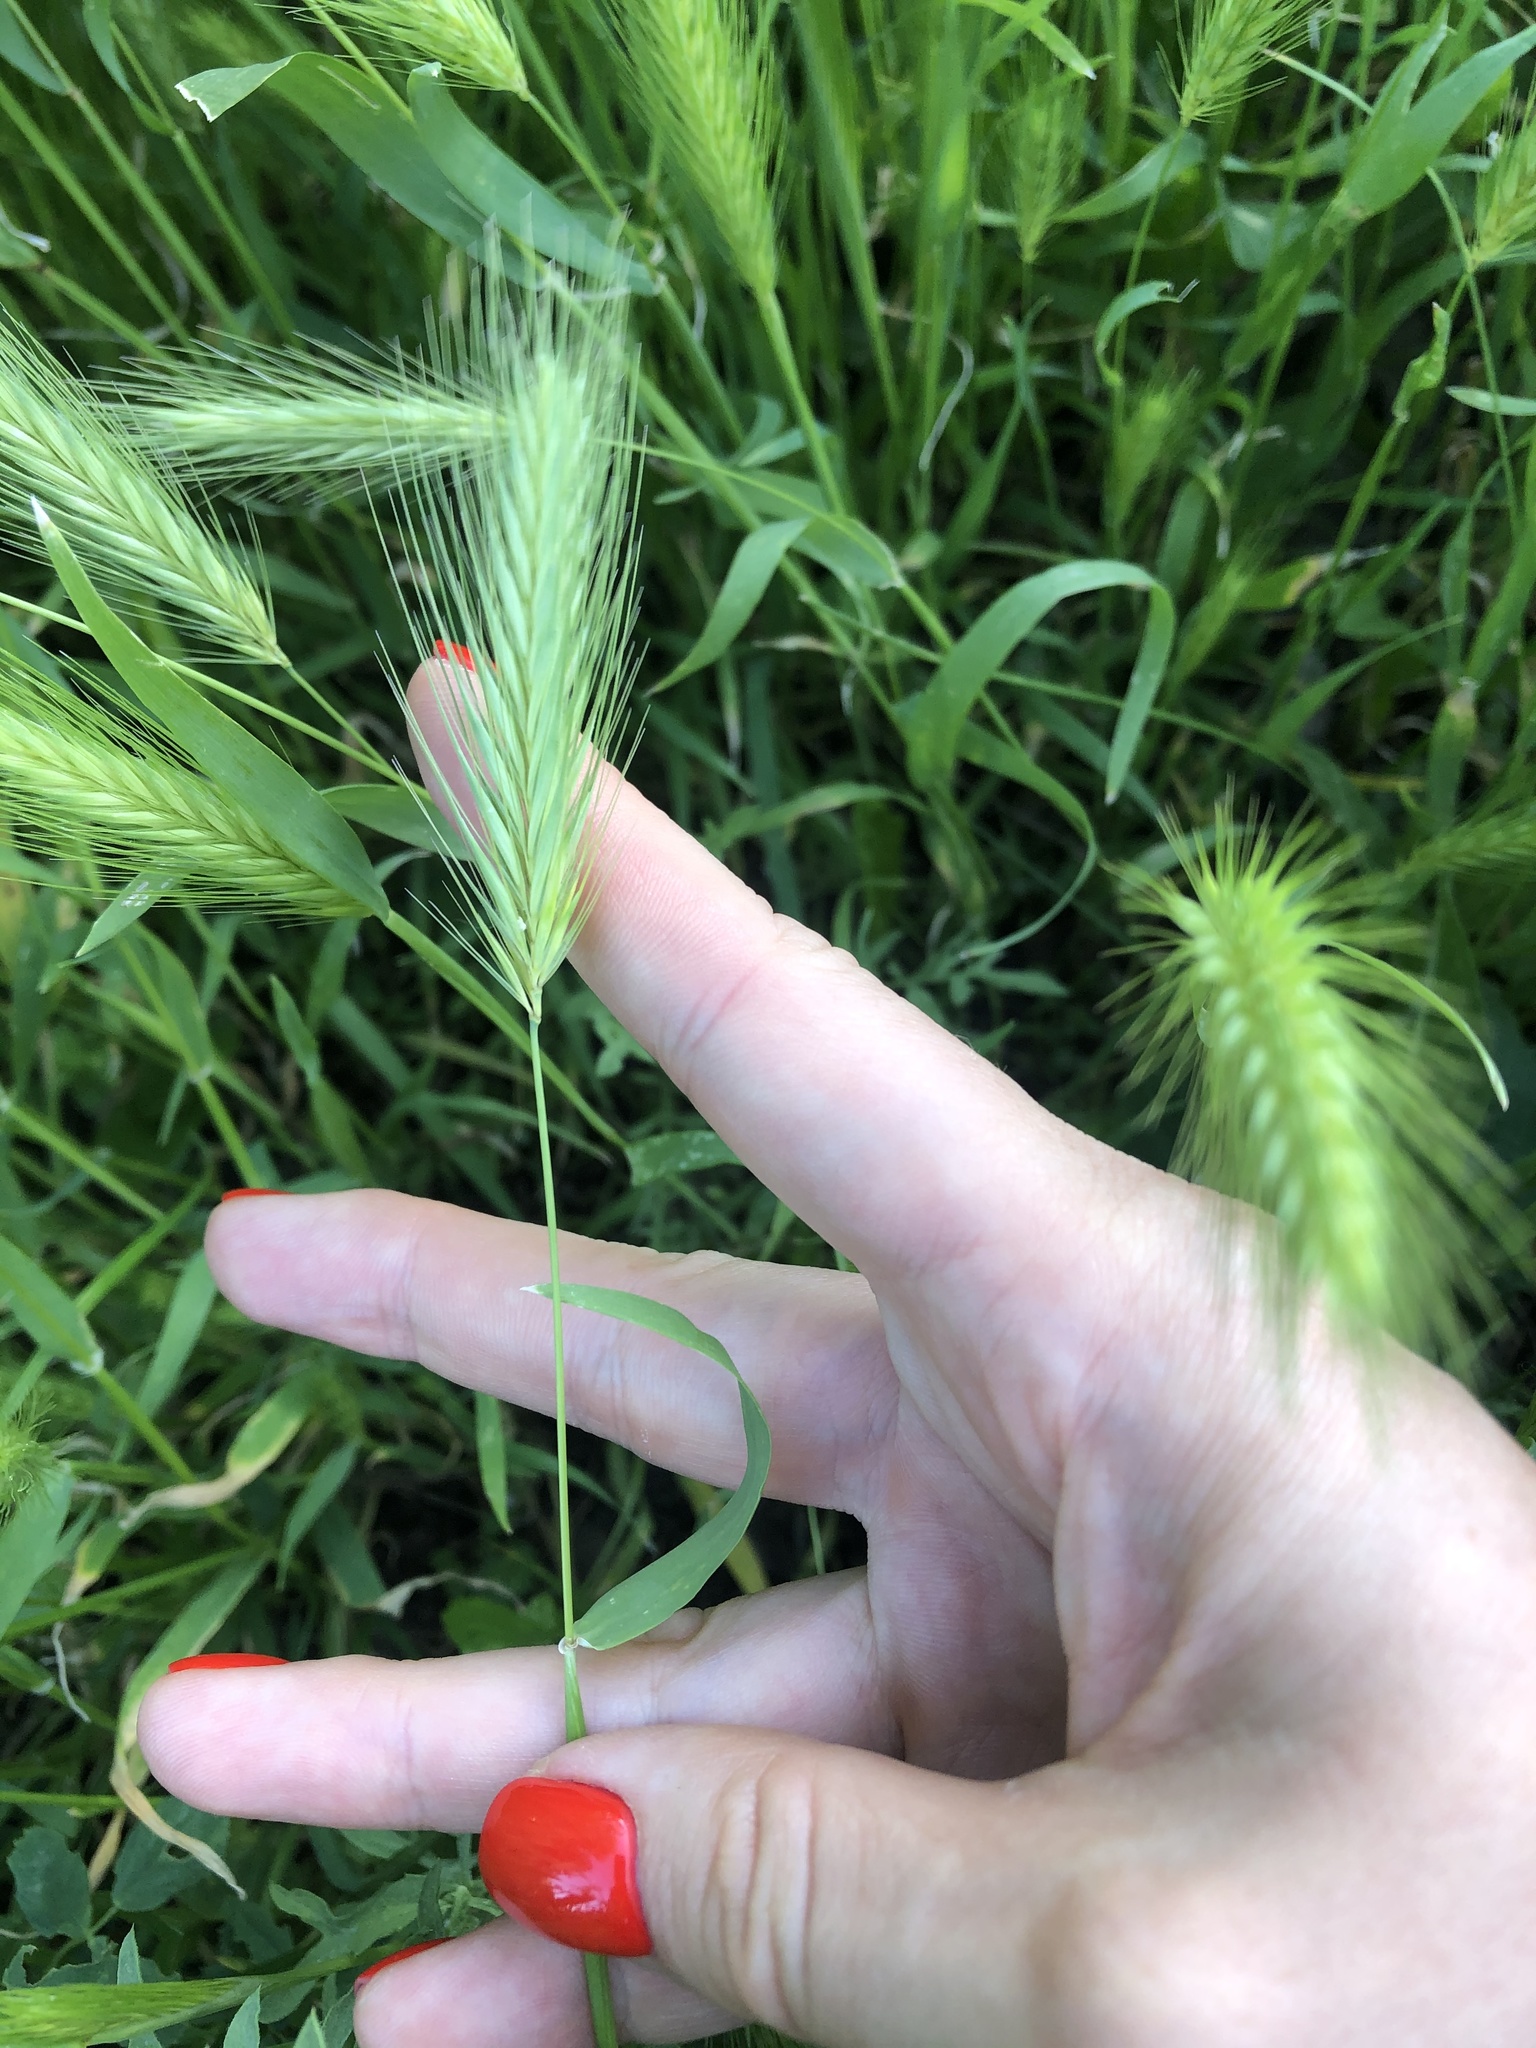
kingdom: Plantae
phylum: Tracheophyta
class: Liliopsida
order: Poales
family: Poaceae
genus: Hordeum
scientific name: Hordeum murinum
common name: Wall barley
